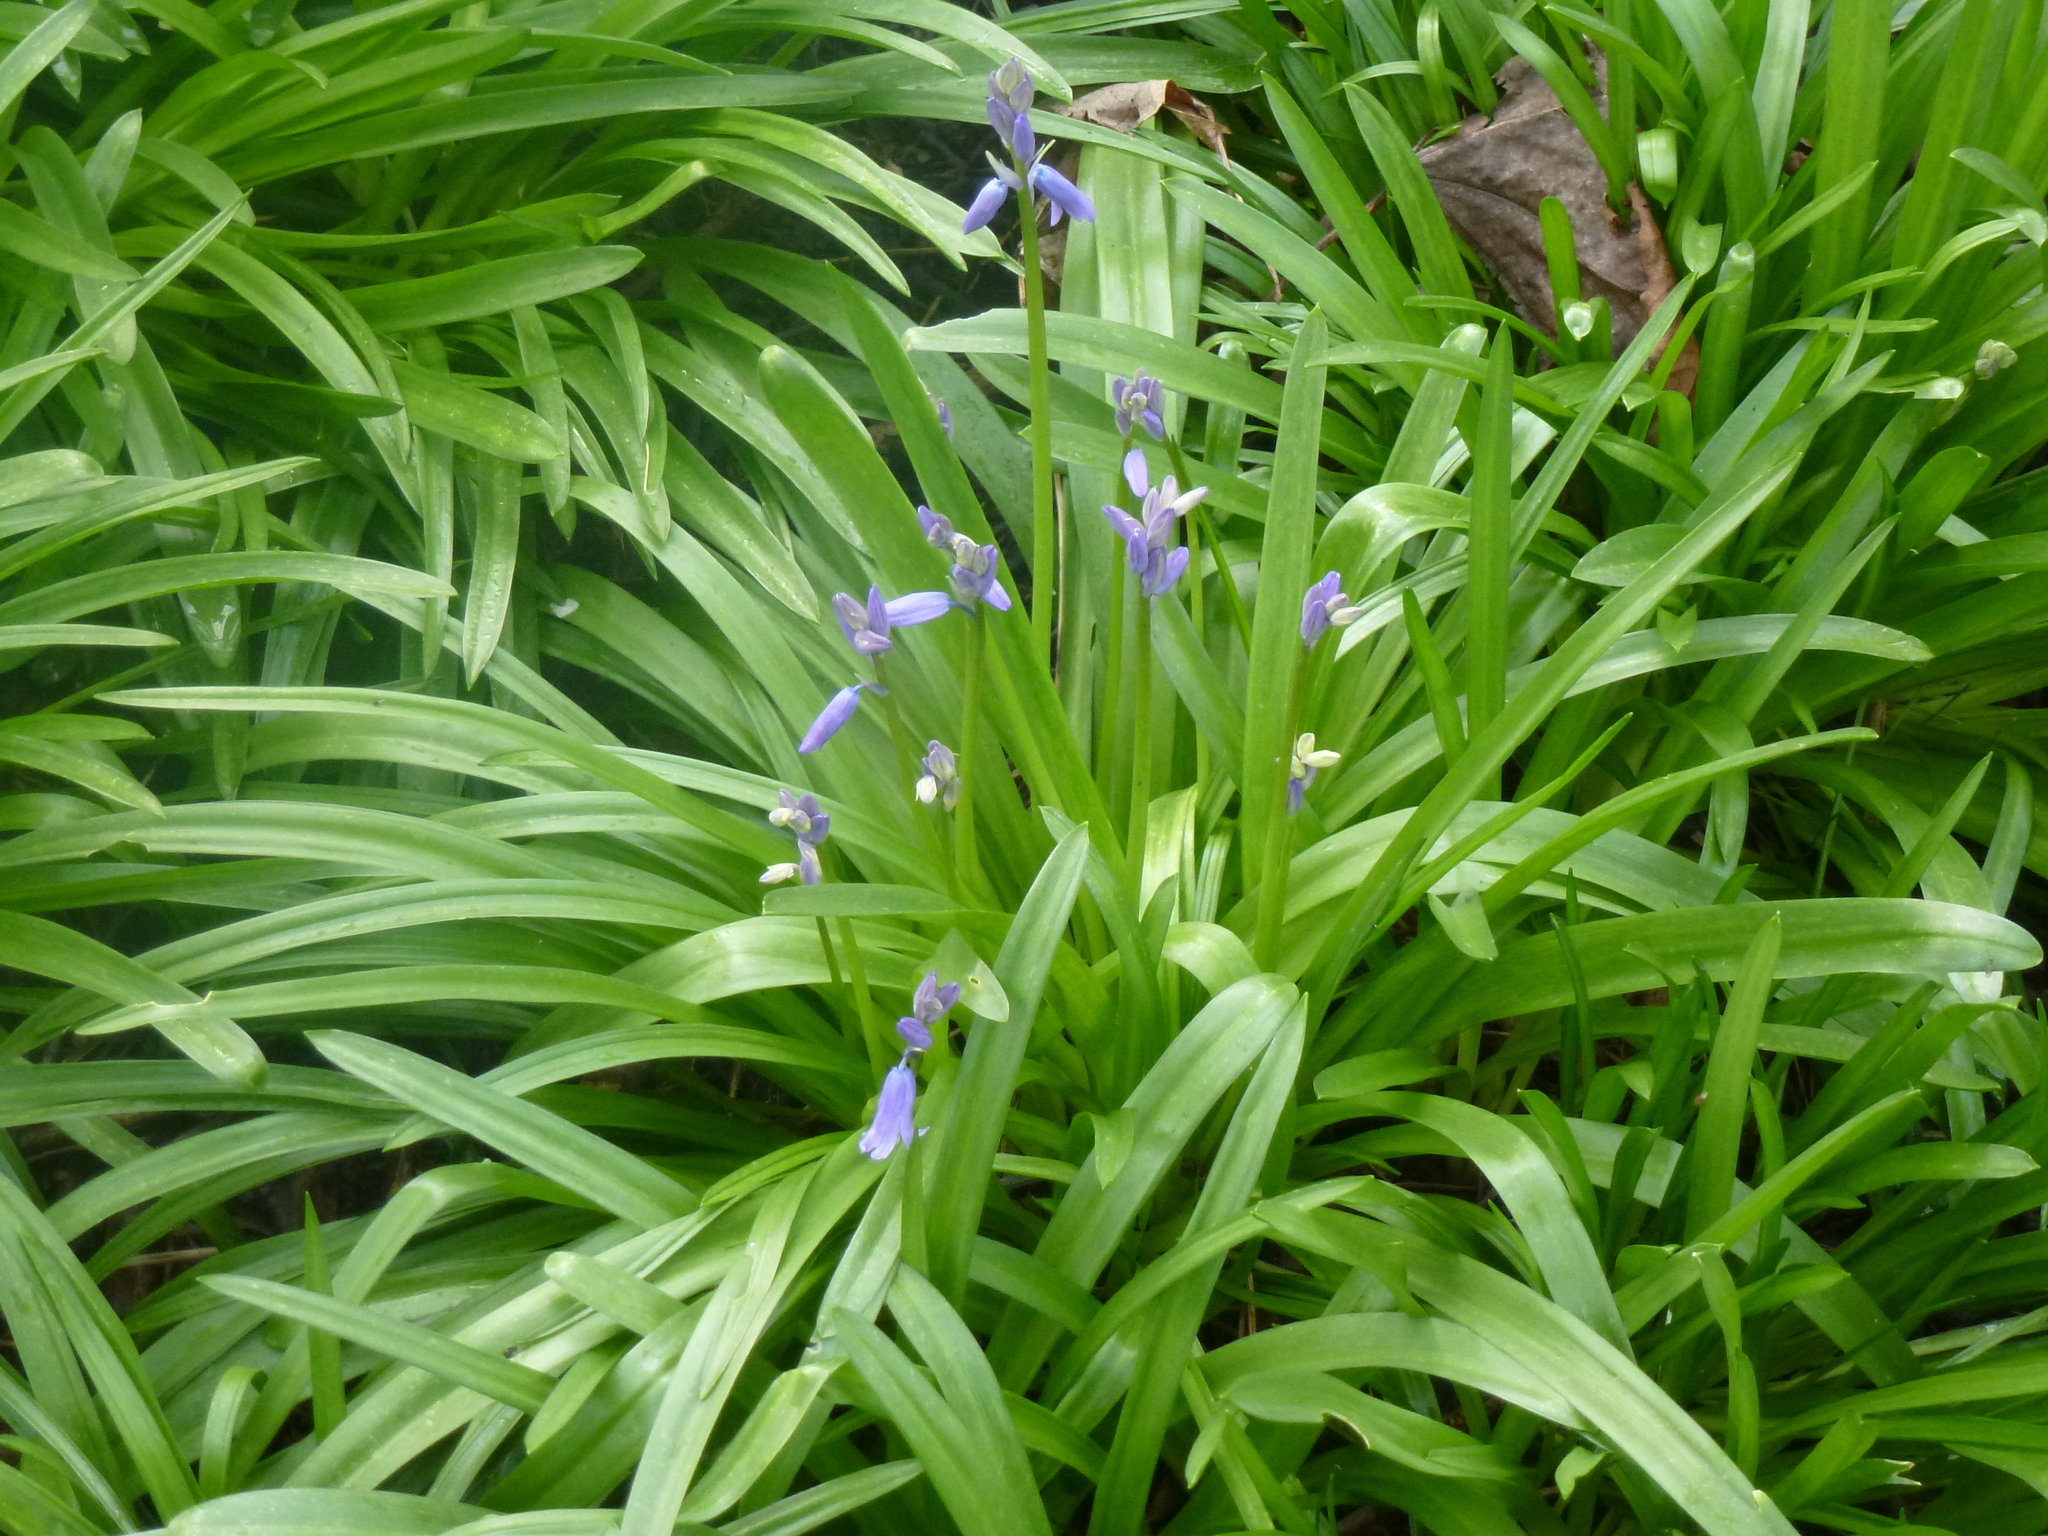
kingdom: Plantae
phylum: Tracheophyta
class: Liliopsida
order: Asparagales
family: Asparagaceae
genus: Hyacinthoides
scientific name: Hyacinthoides massartiana
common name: Hyacinthoides
